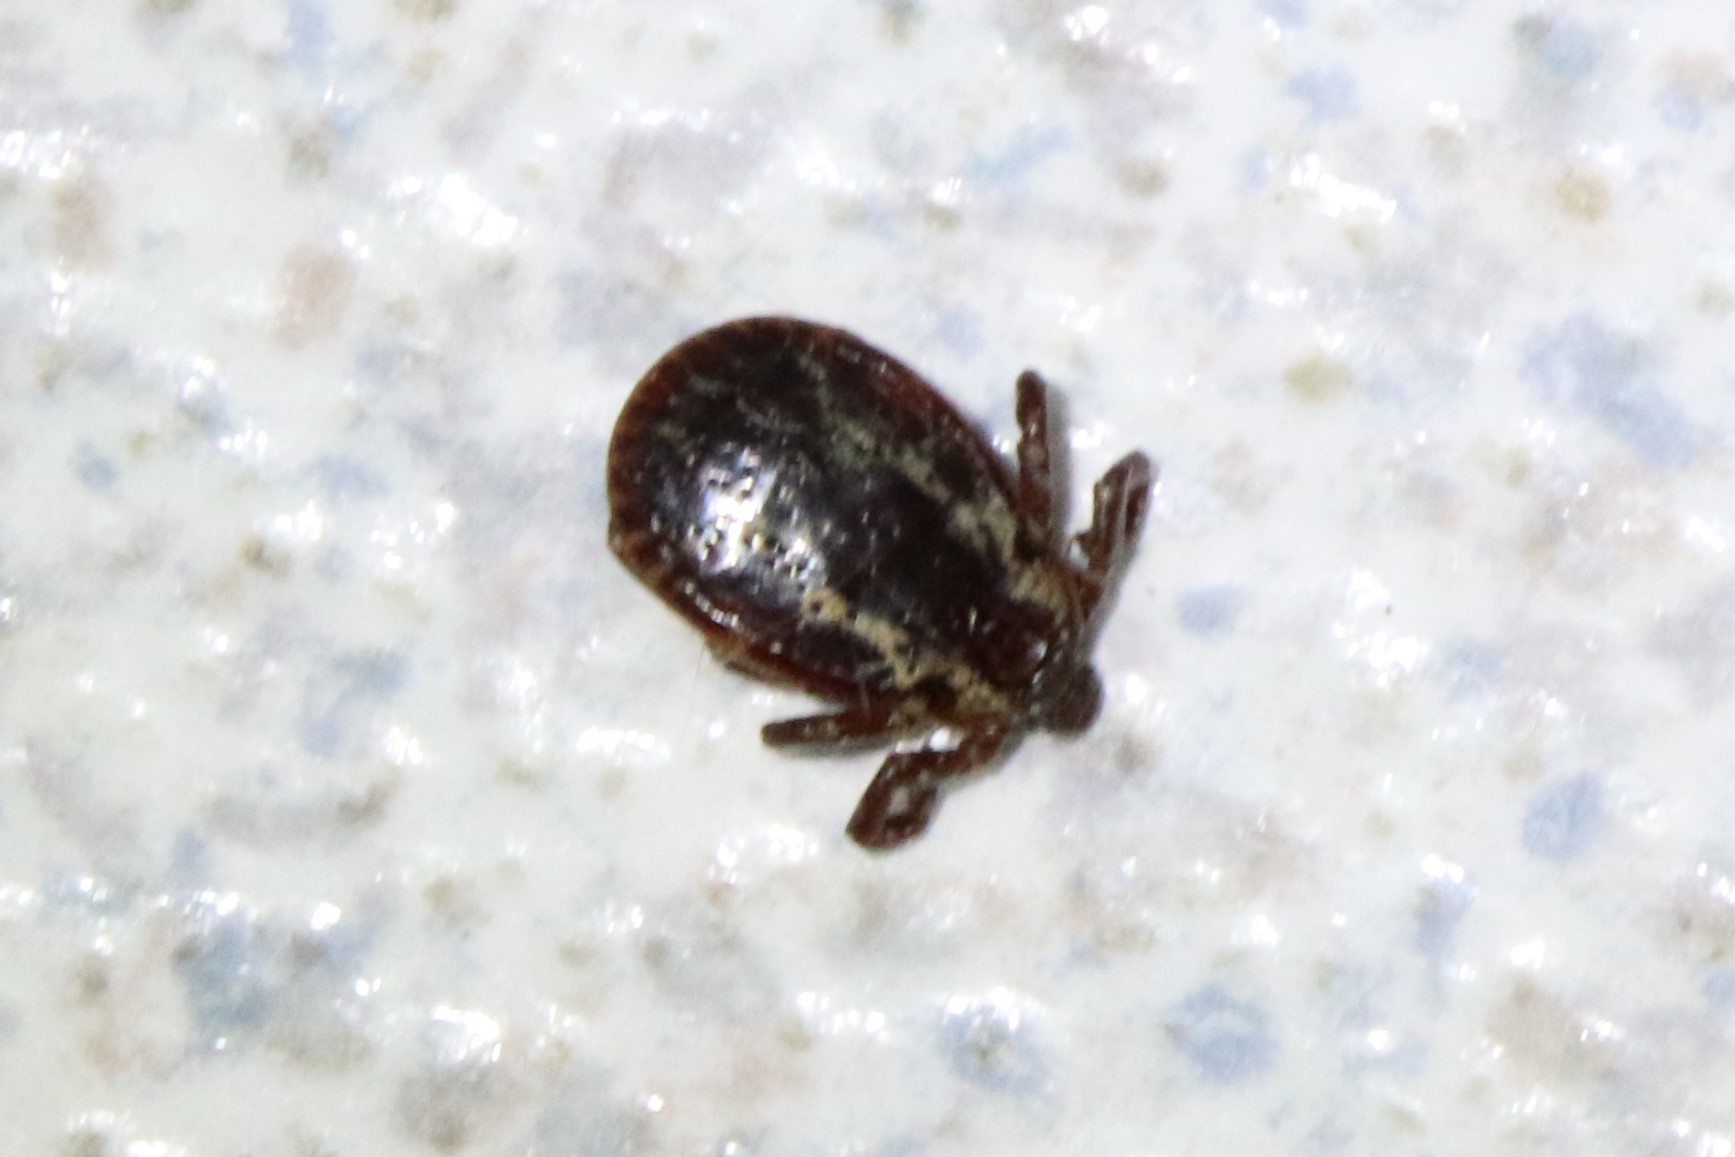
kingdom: Animalia
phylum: Arthropoda
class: Arachnida
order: Ixodida
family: Ixodidae
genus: Dermacentor
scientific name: Dermacentor variabilis
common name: American dog tick
